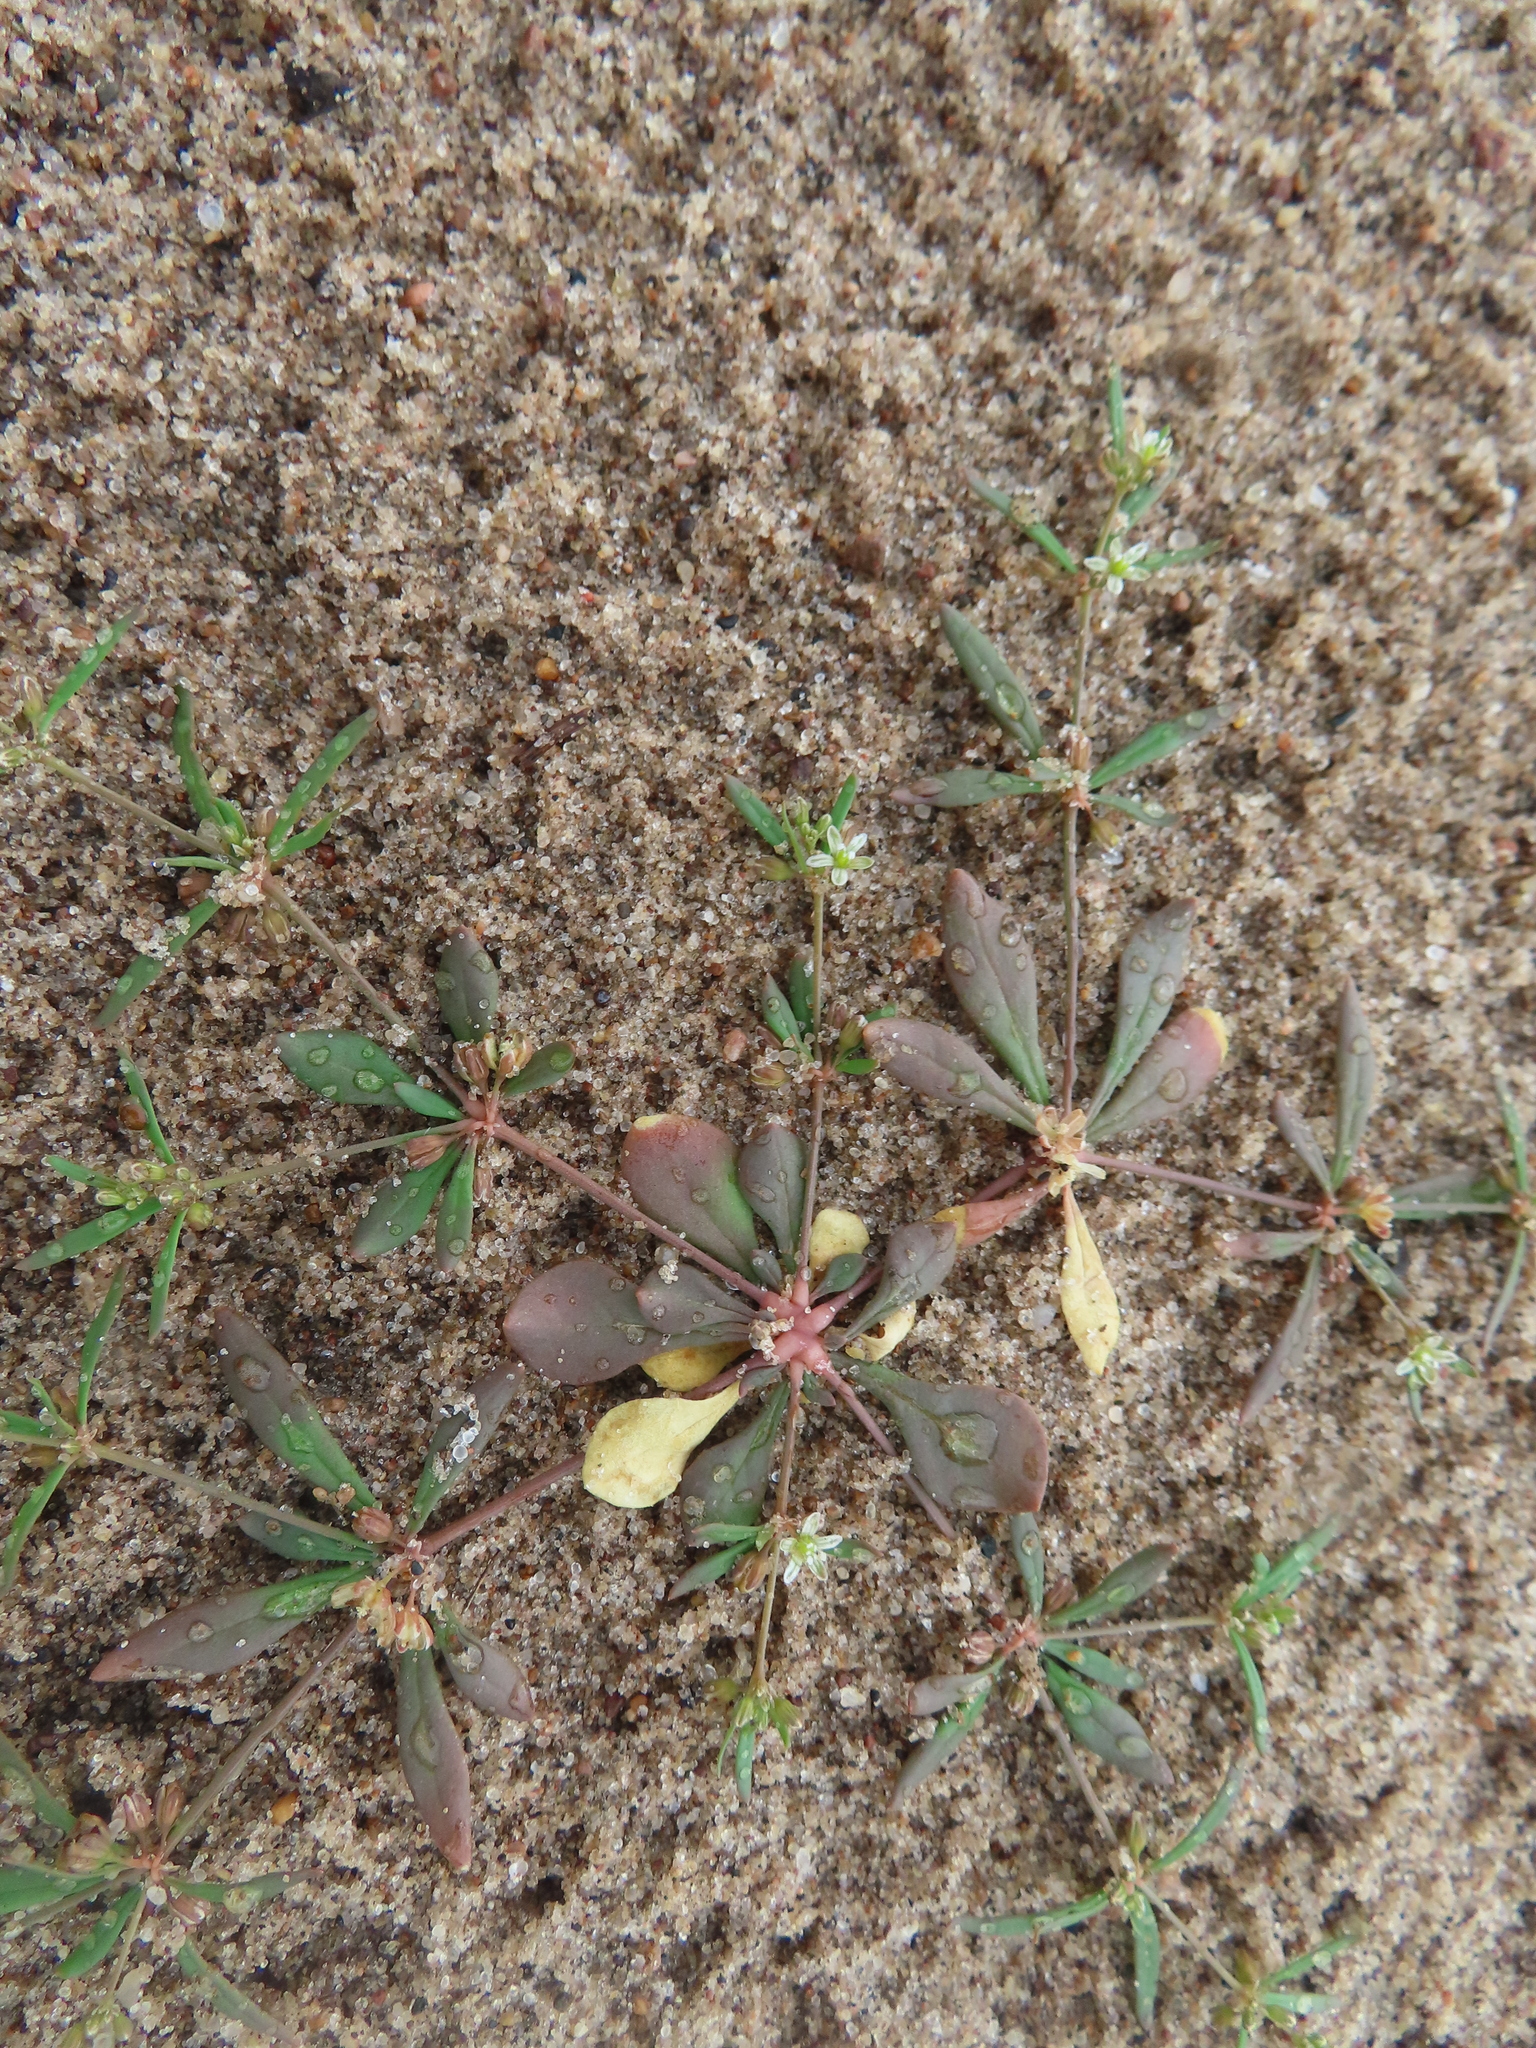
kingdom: Plantae
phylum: Tracheophyta
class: Magnoliopsida
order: Caryophyllales
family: Molluginaceae
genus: Mollugo
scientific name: Mollugo verticillata
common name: Green carpetweed
